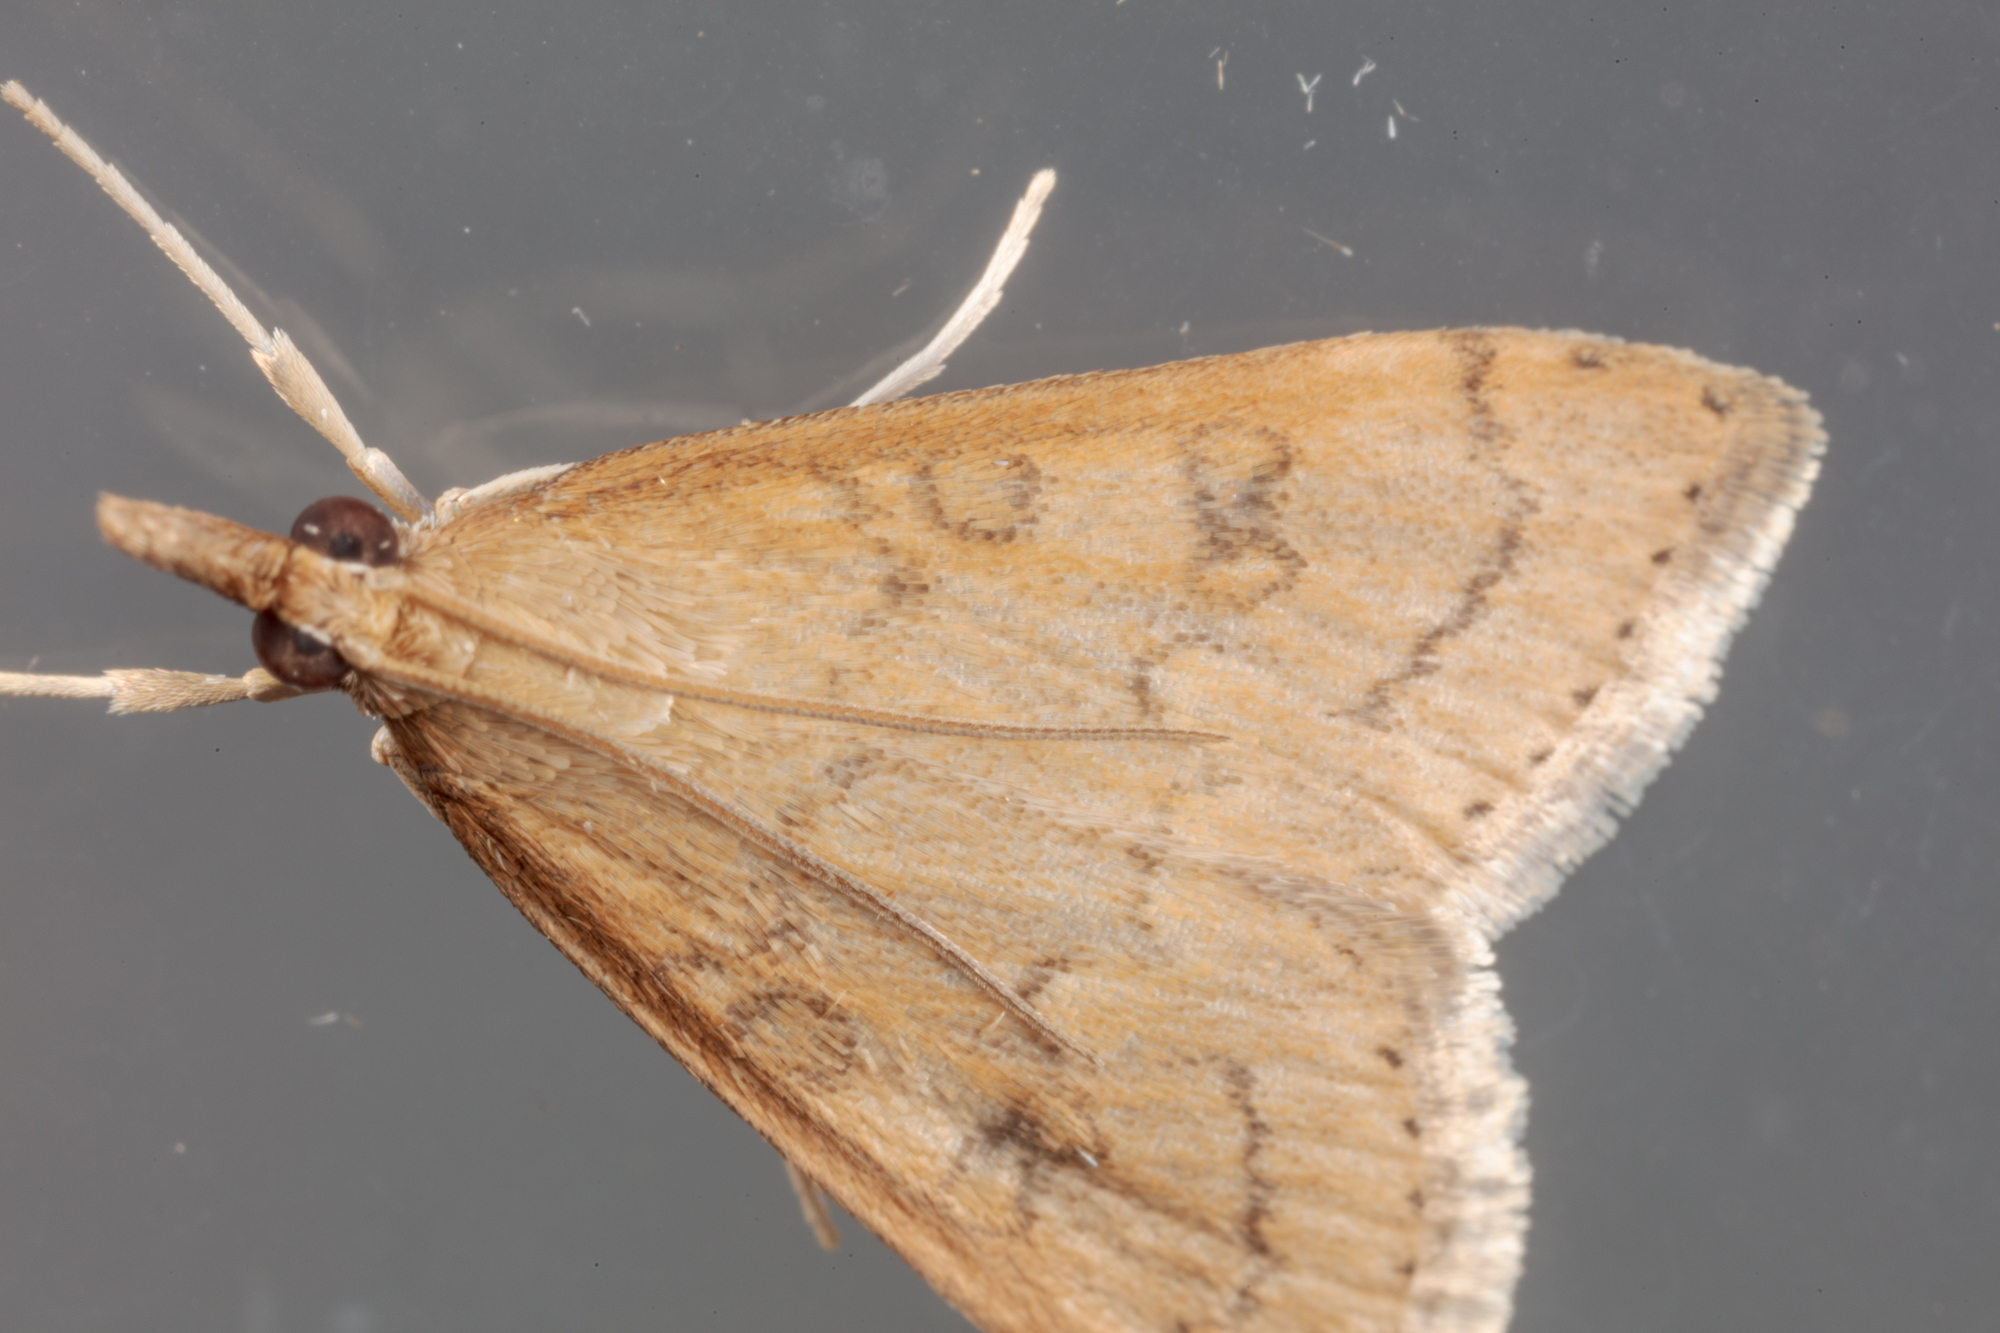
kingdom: Animalia
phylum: Arthropoda
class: Insecta
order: Lepidoptera
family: Crambidae
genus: Udea
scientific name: Udea rubigalis
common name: Celery leaftier moth
